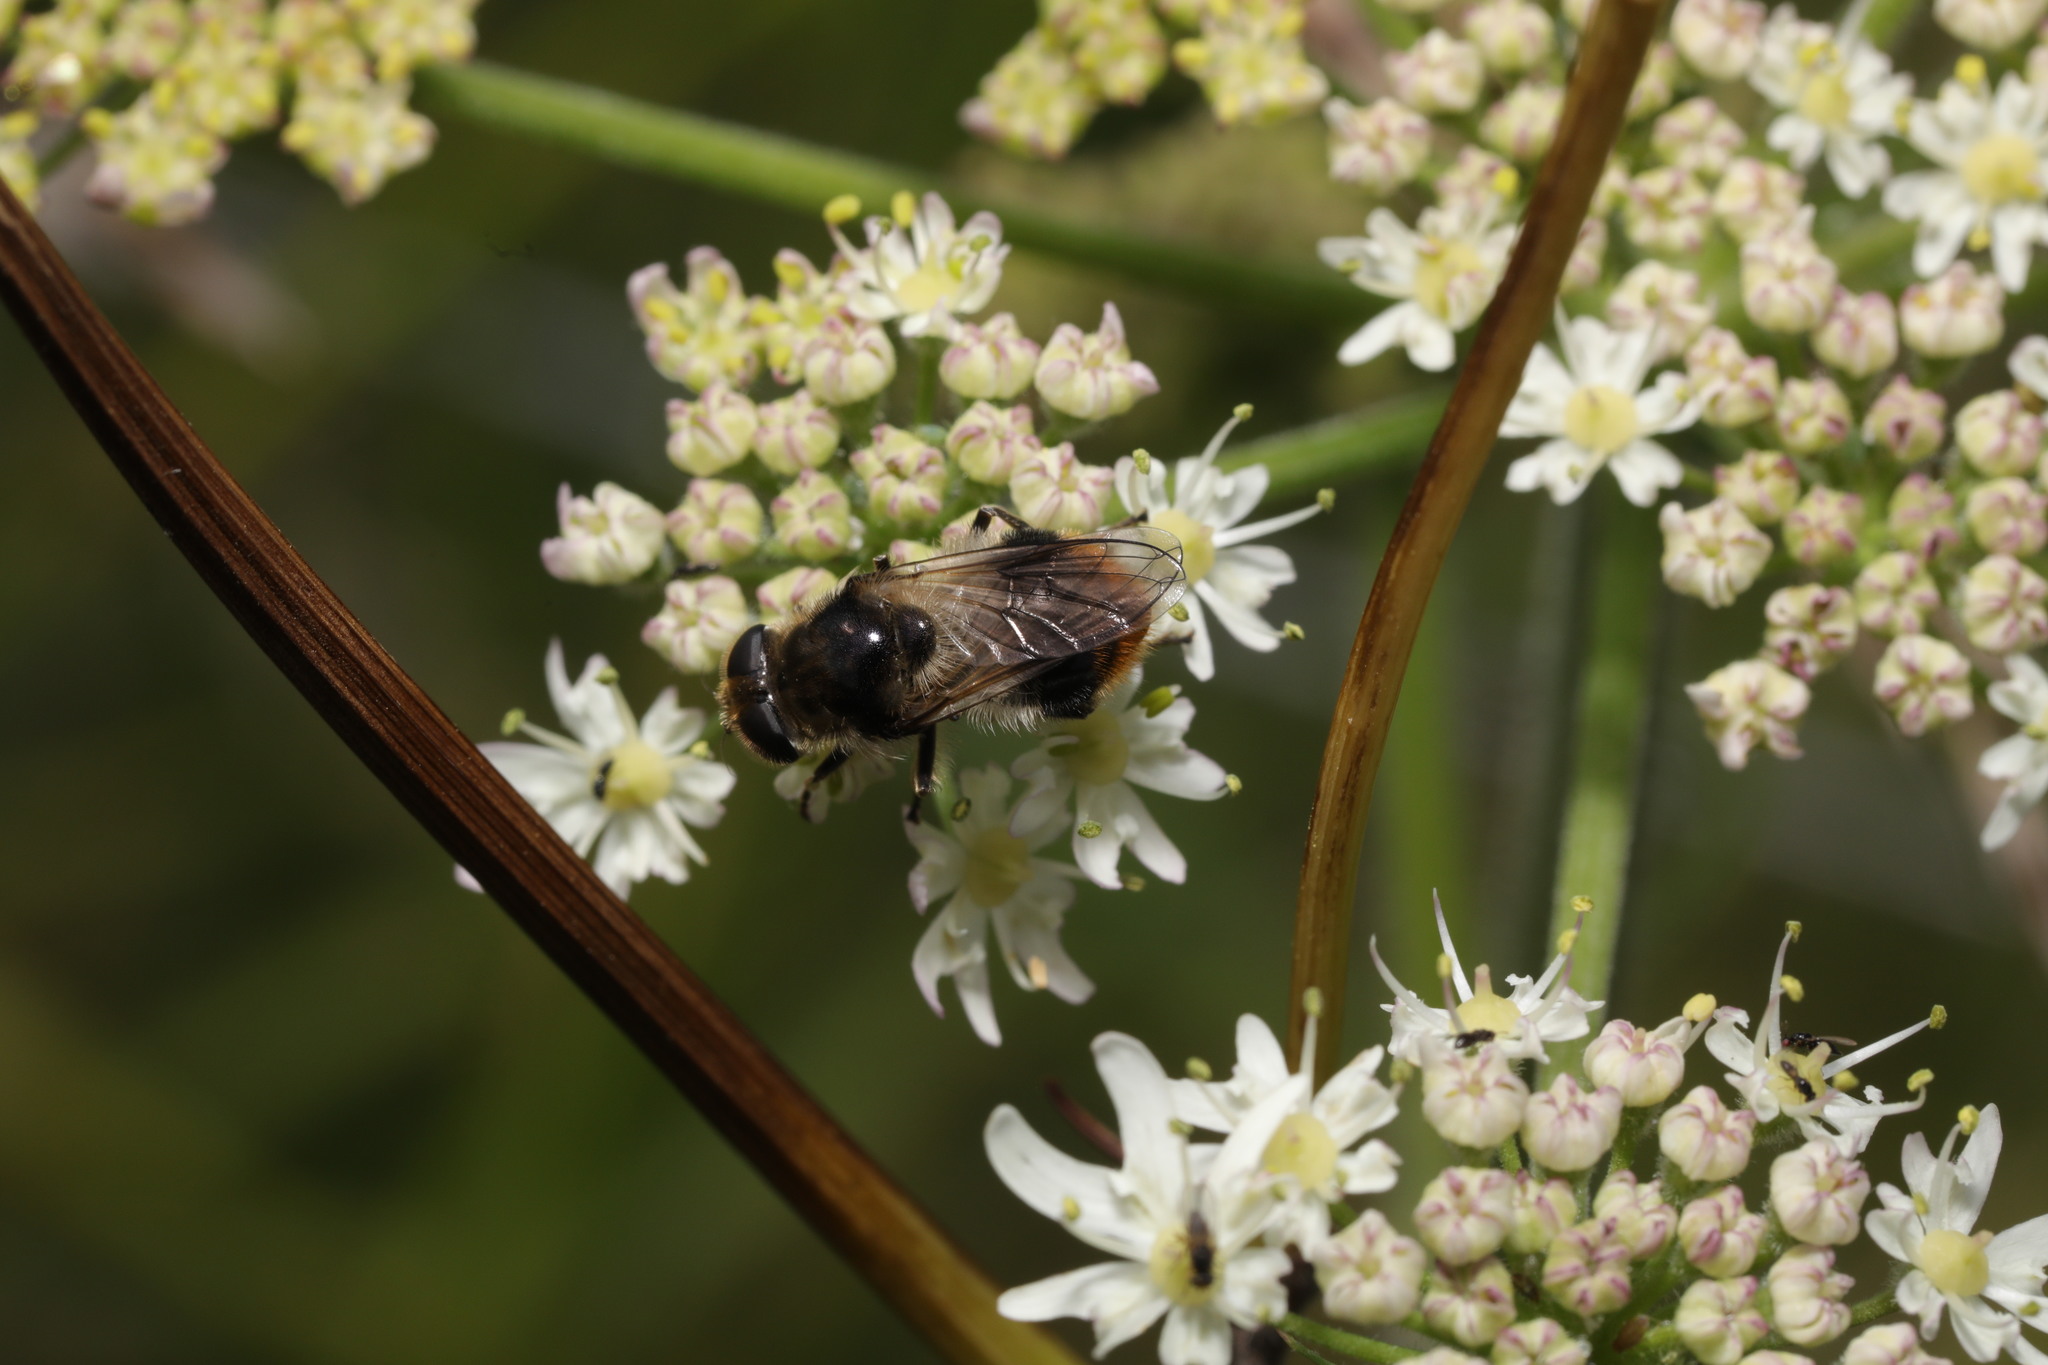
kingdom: Animalia
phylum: Arthropoda
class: Insecta
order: Diptera
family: Syrphidae
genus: Cheilosia
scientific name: Cheilosia illustrata
